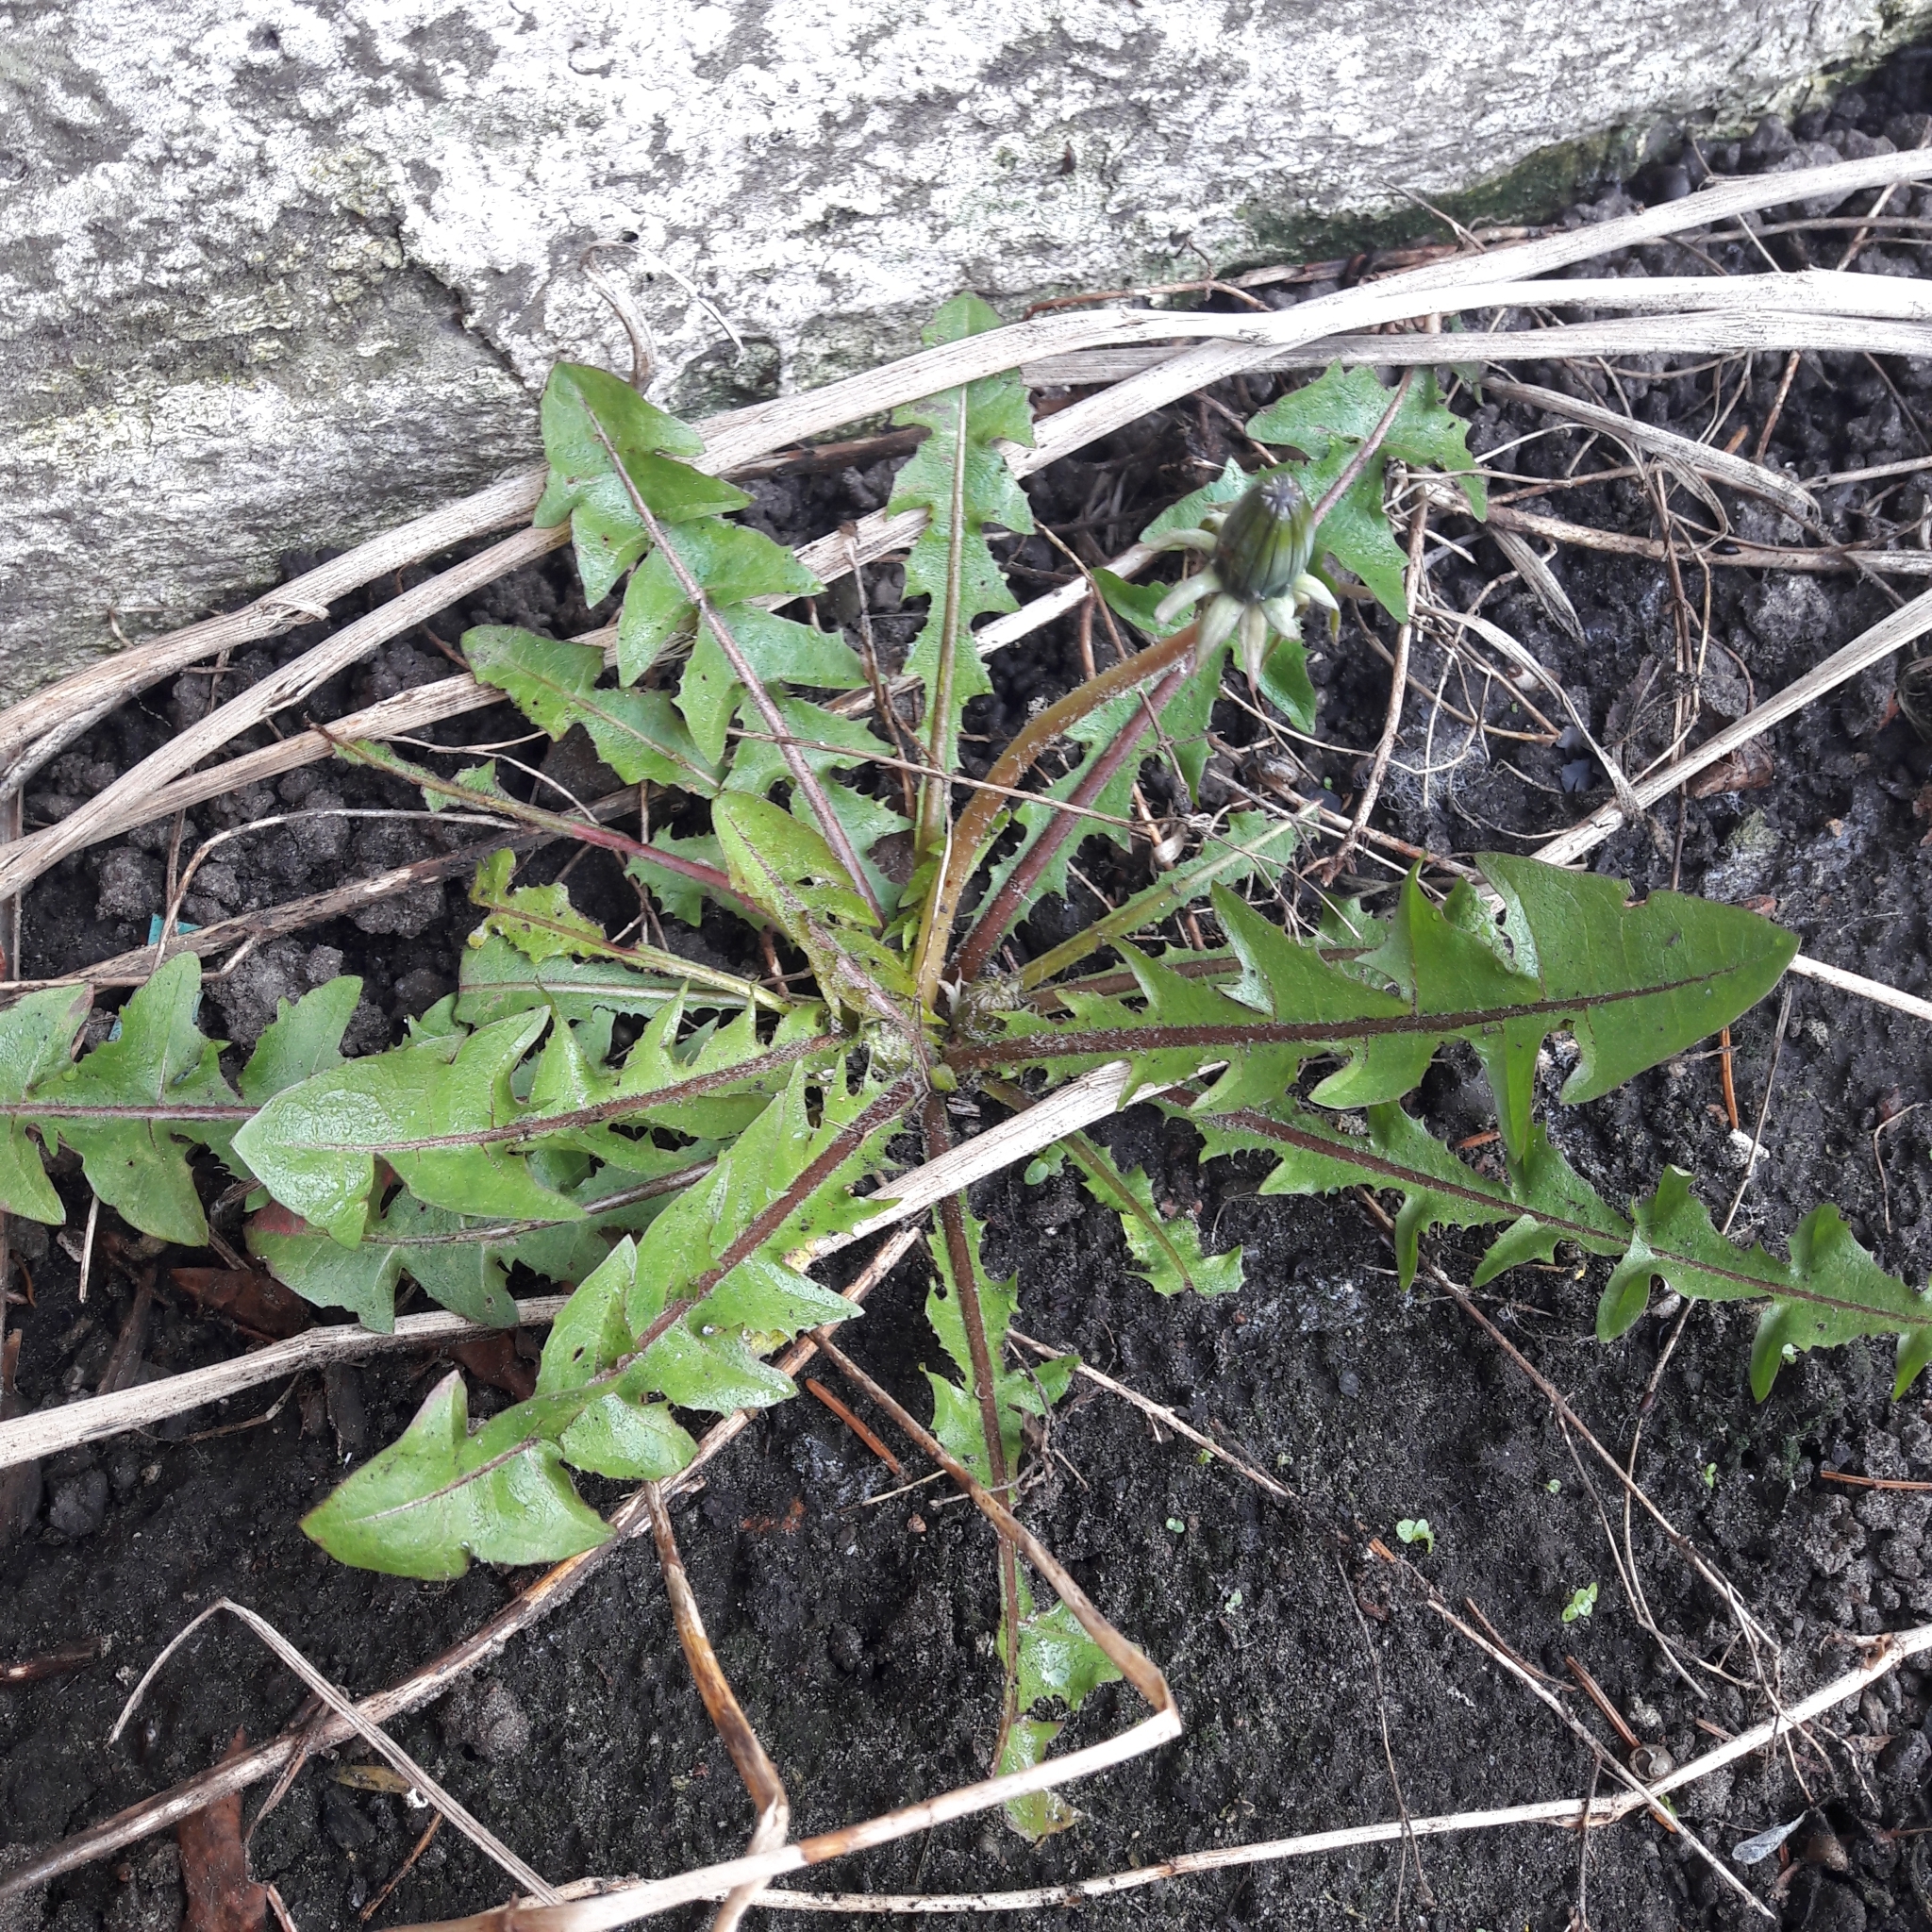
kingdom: Plantae
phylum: Tracheophyta
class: Magnoliopsida
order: Asterales
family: Asteraceae
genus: Taraxacum
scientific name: Taraxacum officinale
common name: Common dandelion
